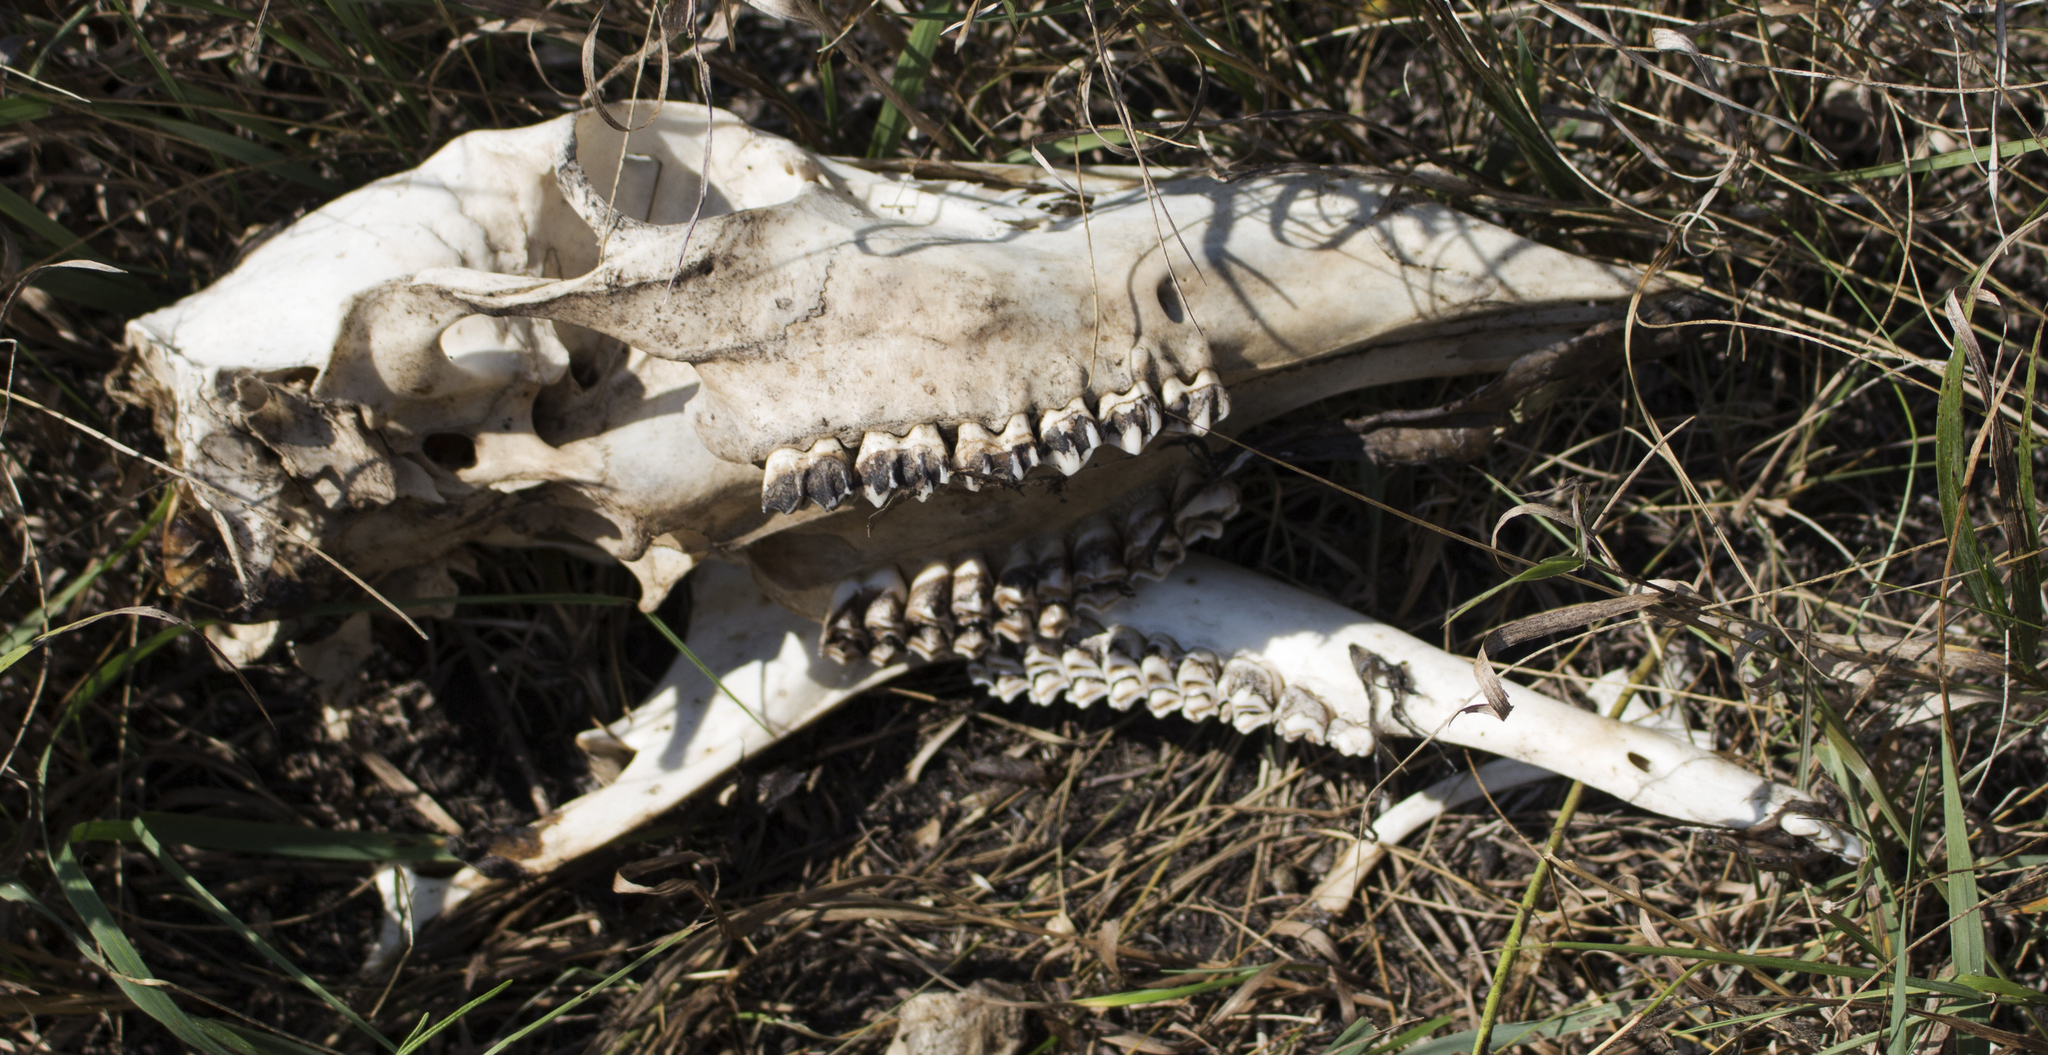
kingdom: Animalia
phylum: Chordata
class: Mammalia
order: Artiodactyla
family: Cervidae
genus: Odocoileus
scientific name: Odocoileus virginianus
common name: White-tailed deer
